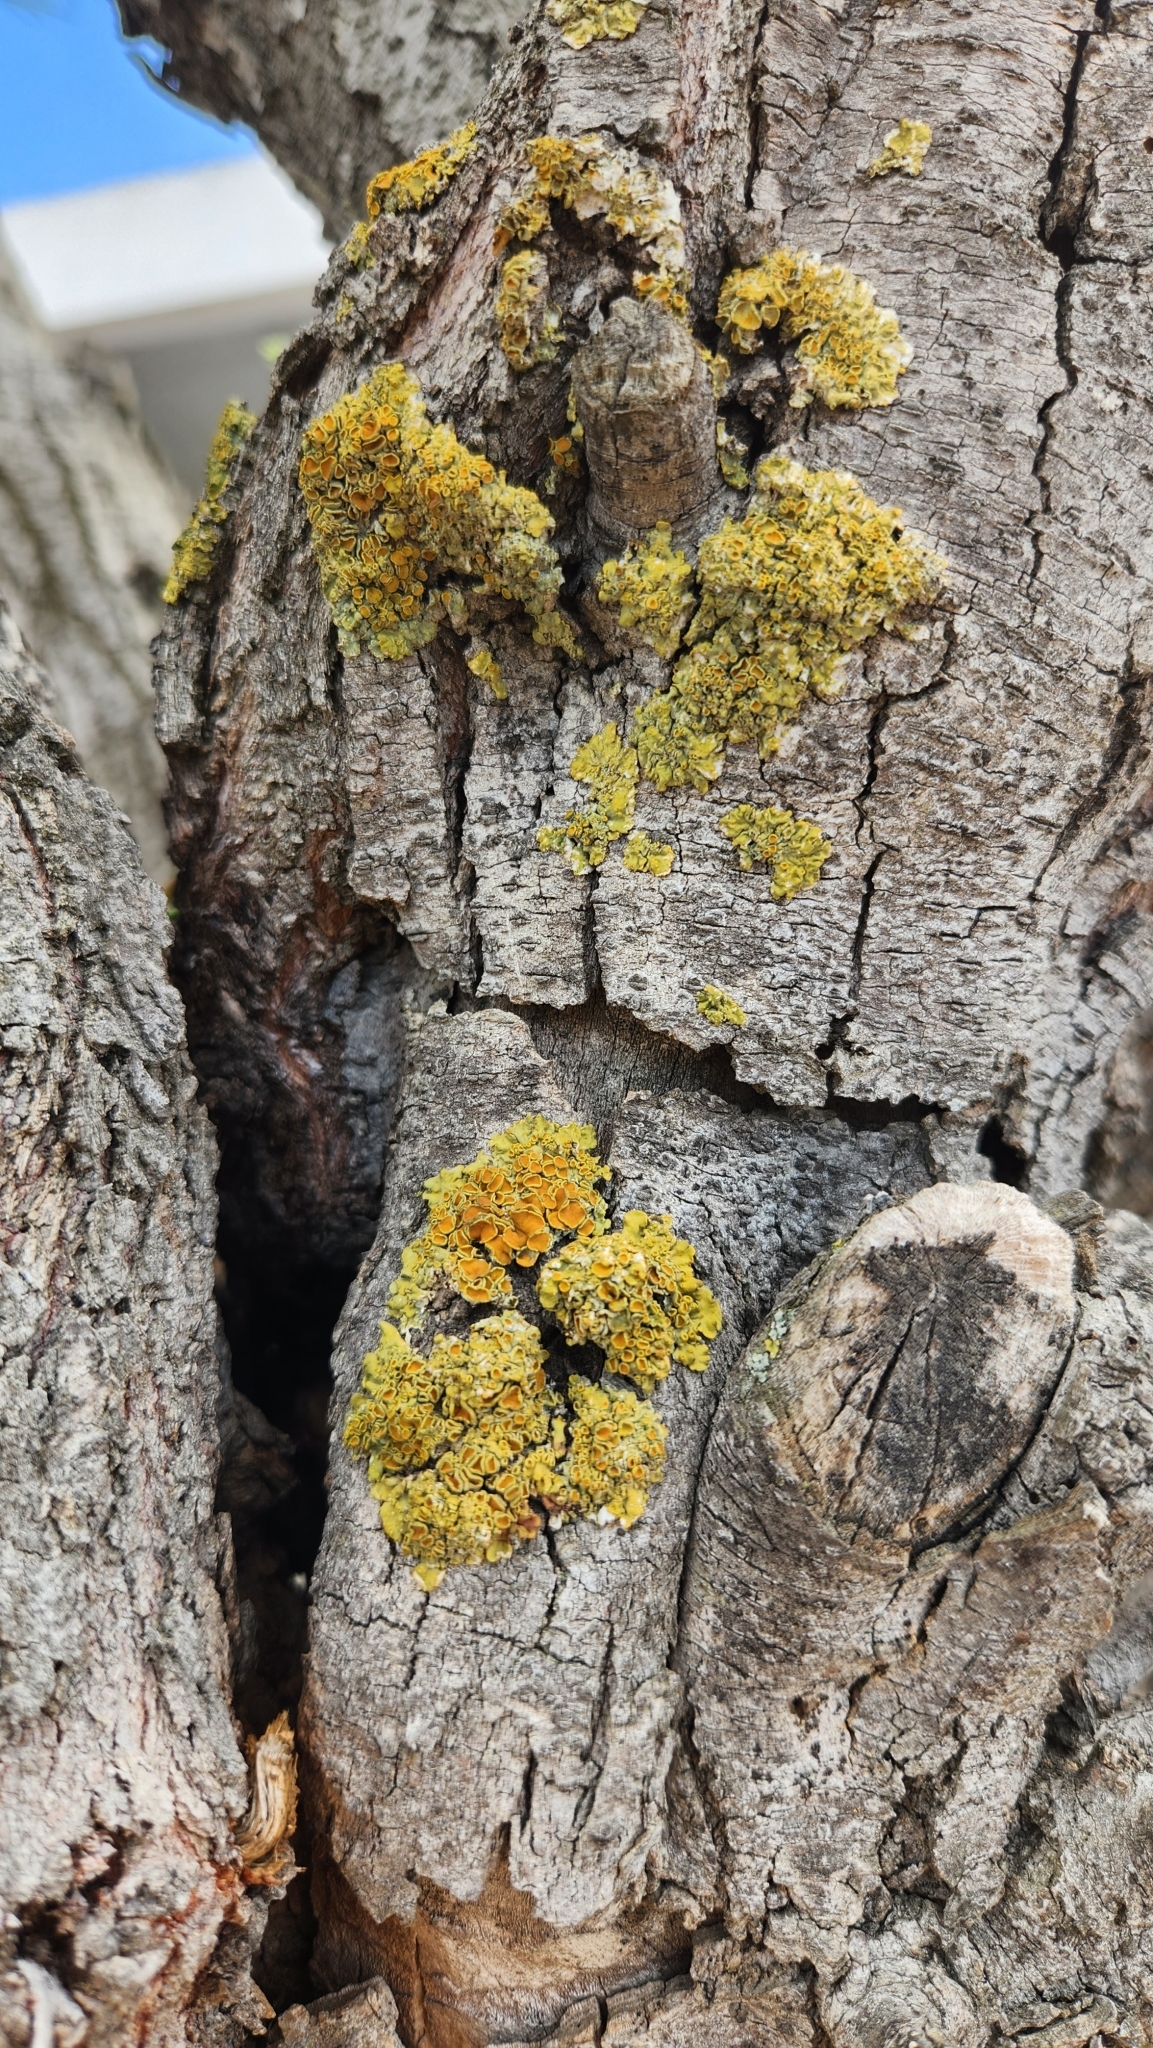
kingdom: Fungi
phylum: Ascomycota
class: Lecanoromycetes
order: Teloschistales
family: Teloschistaceae
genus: Xanthoria
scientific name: Xanthoria parietina
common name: Common orange lichen
